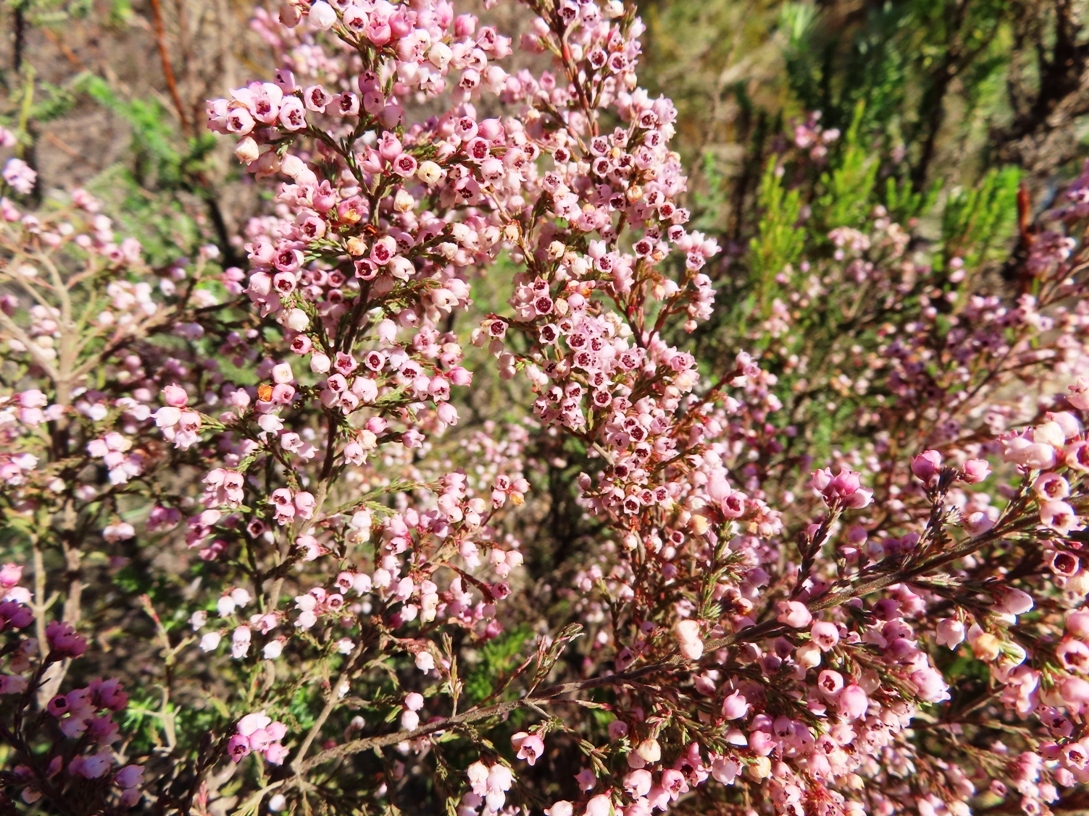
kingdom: Plantae
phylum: Tracheophyta
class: Magnoliopsida
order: Ericales
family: Ericaceae
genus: Erica
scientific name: Erica quadrangularis
